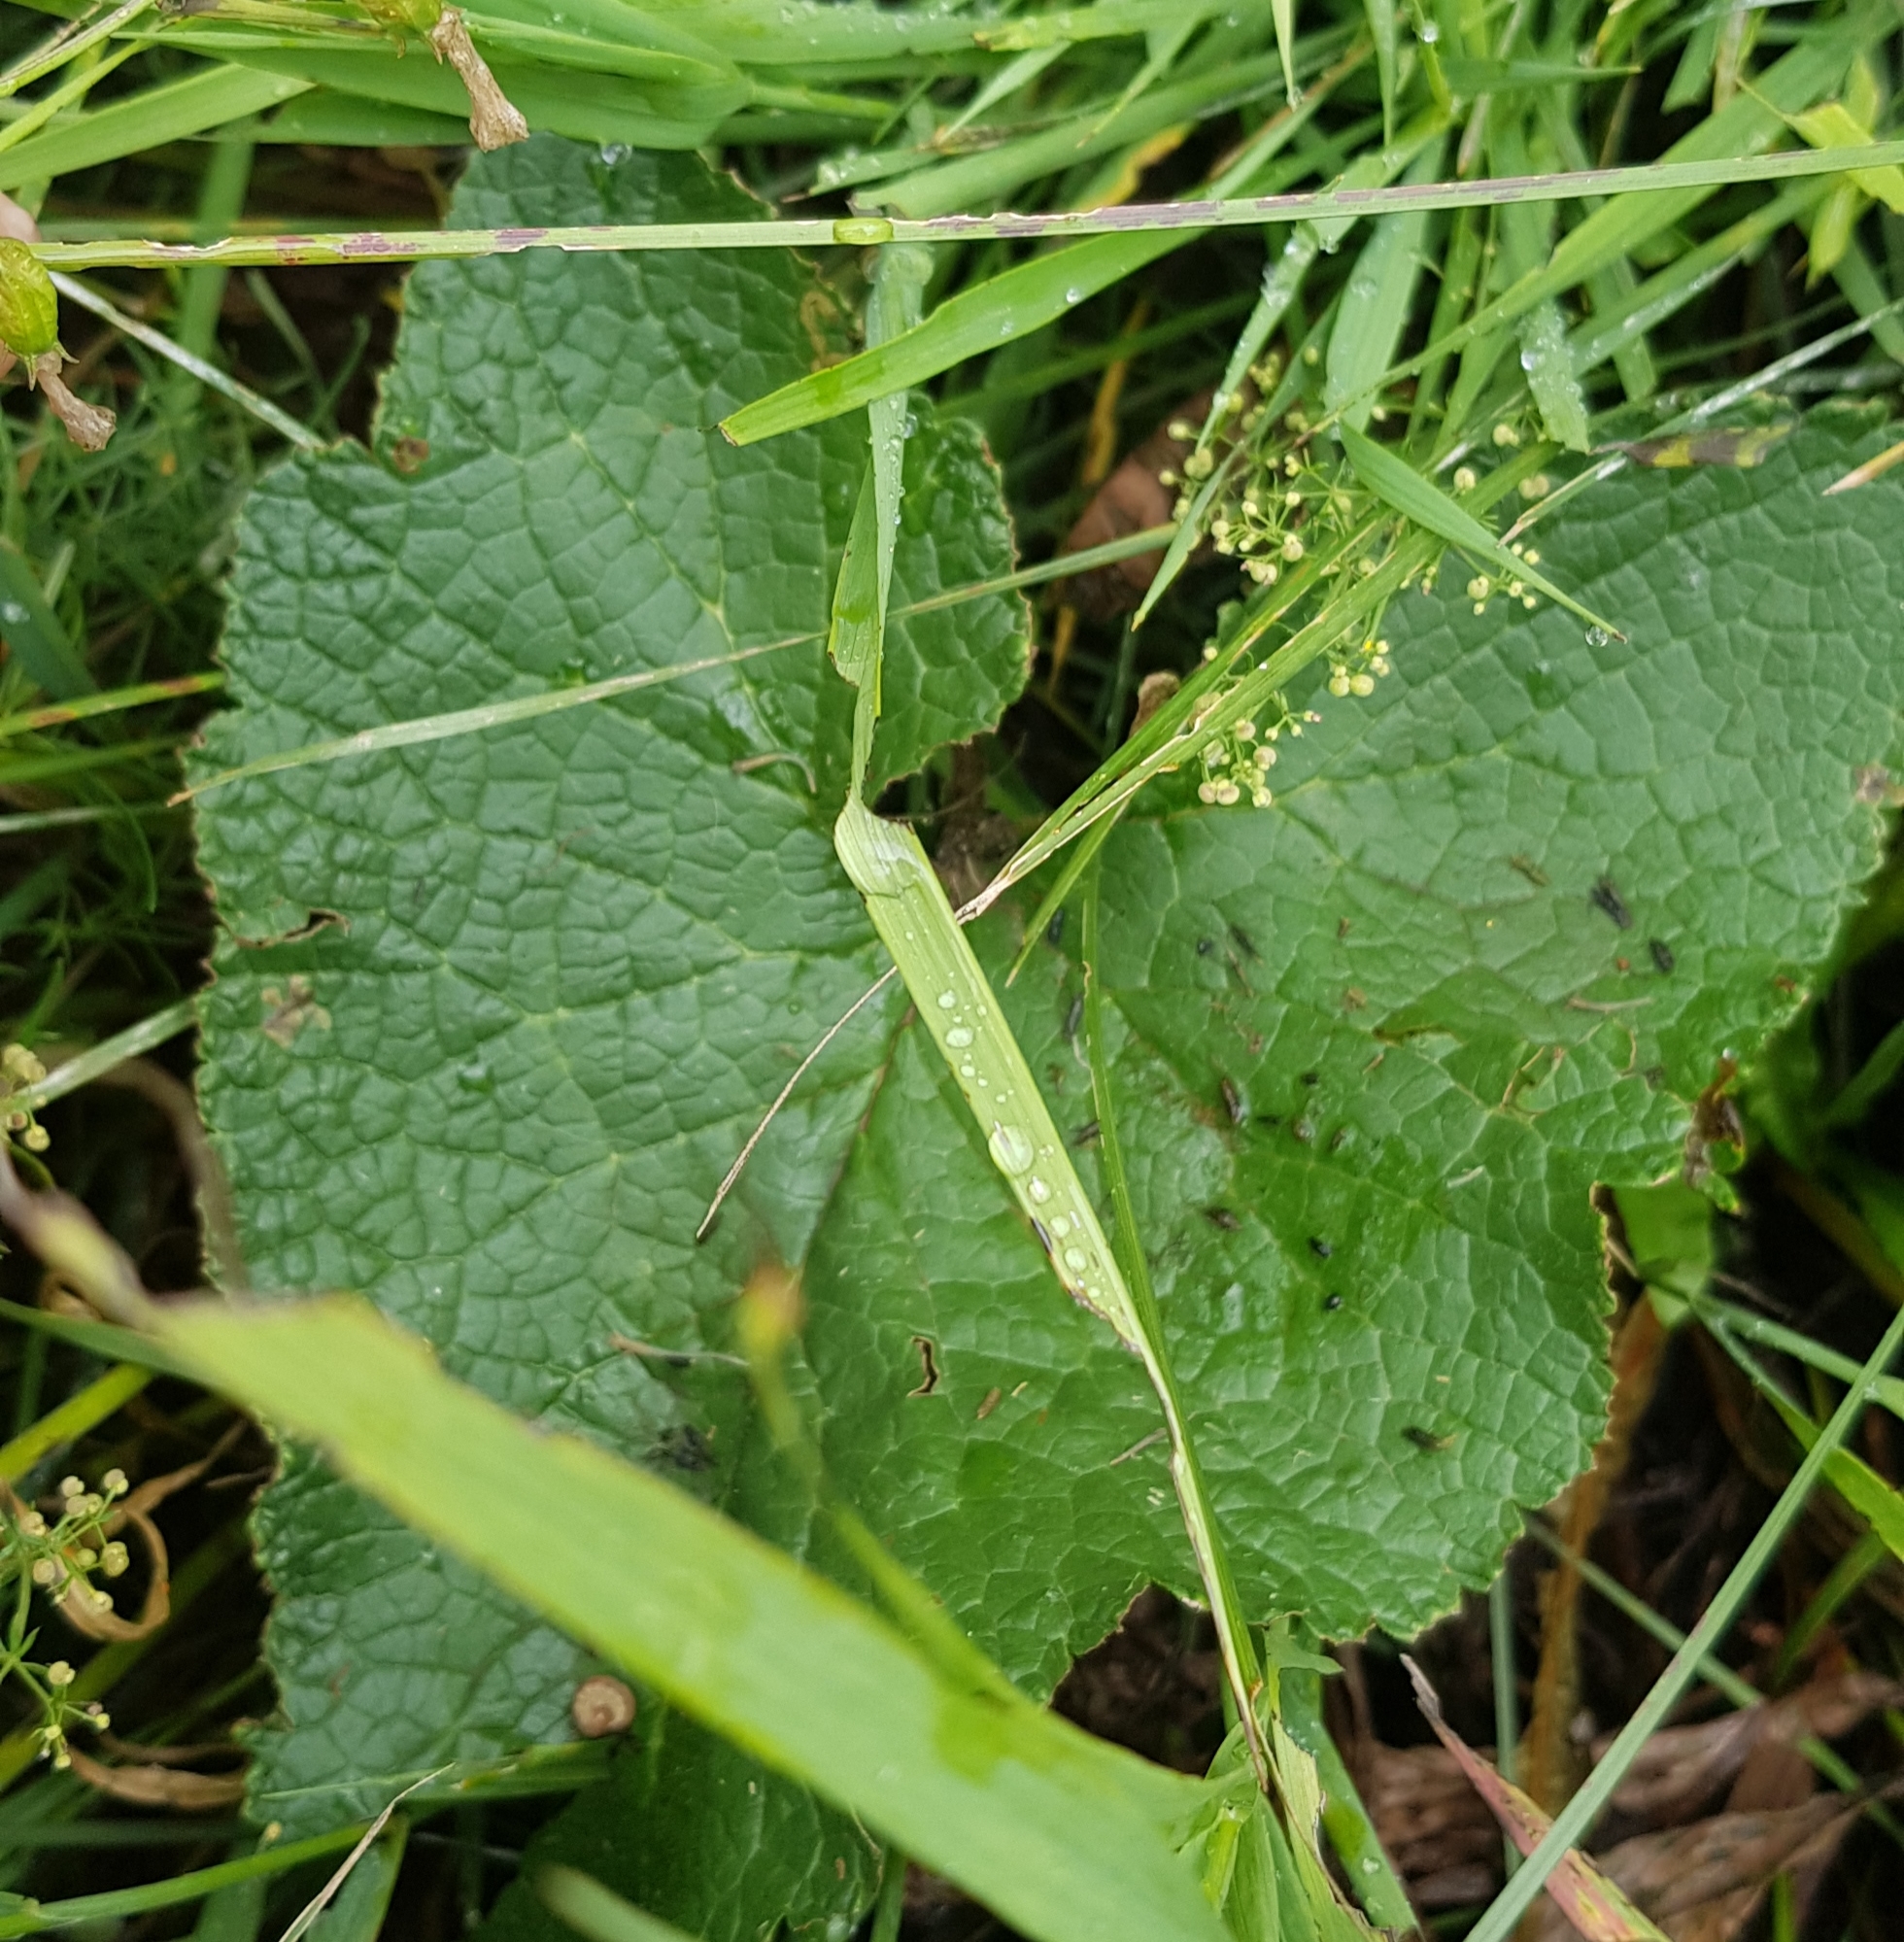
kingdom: Plantae
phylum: Tracheophyta
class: Magnoliopsida
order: Lamiales
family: Lamiaceae
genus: Phlomoides
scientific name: Phlomoides tuberosa
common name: Tuberous jerusalem sage
